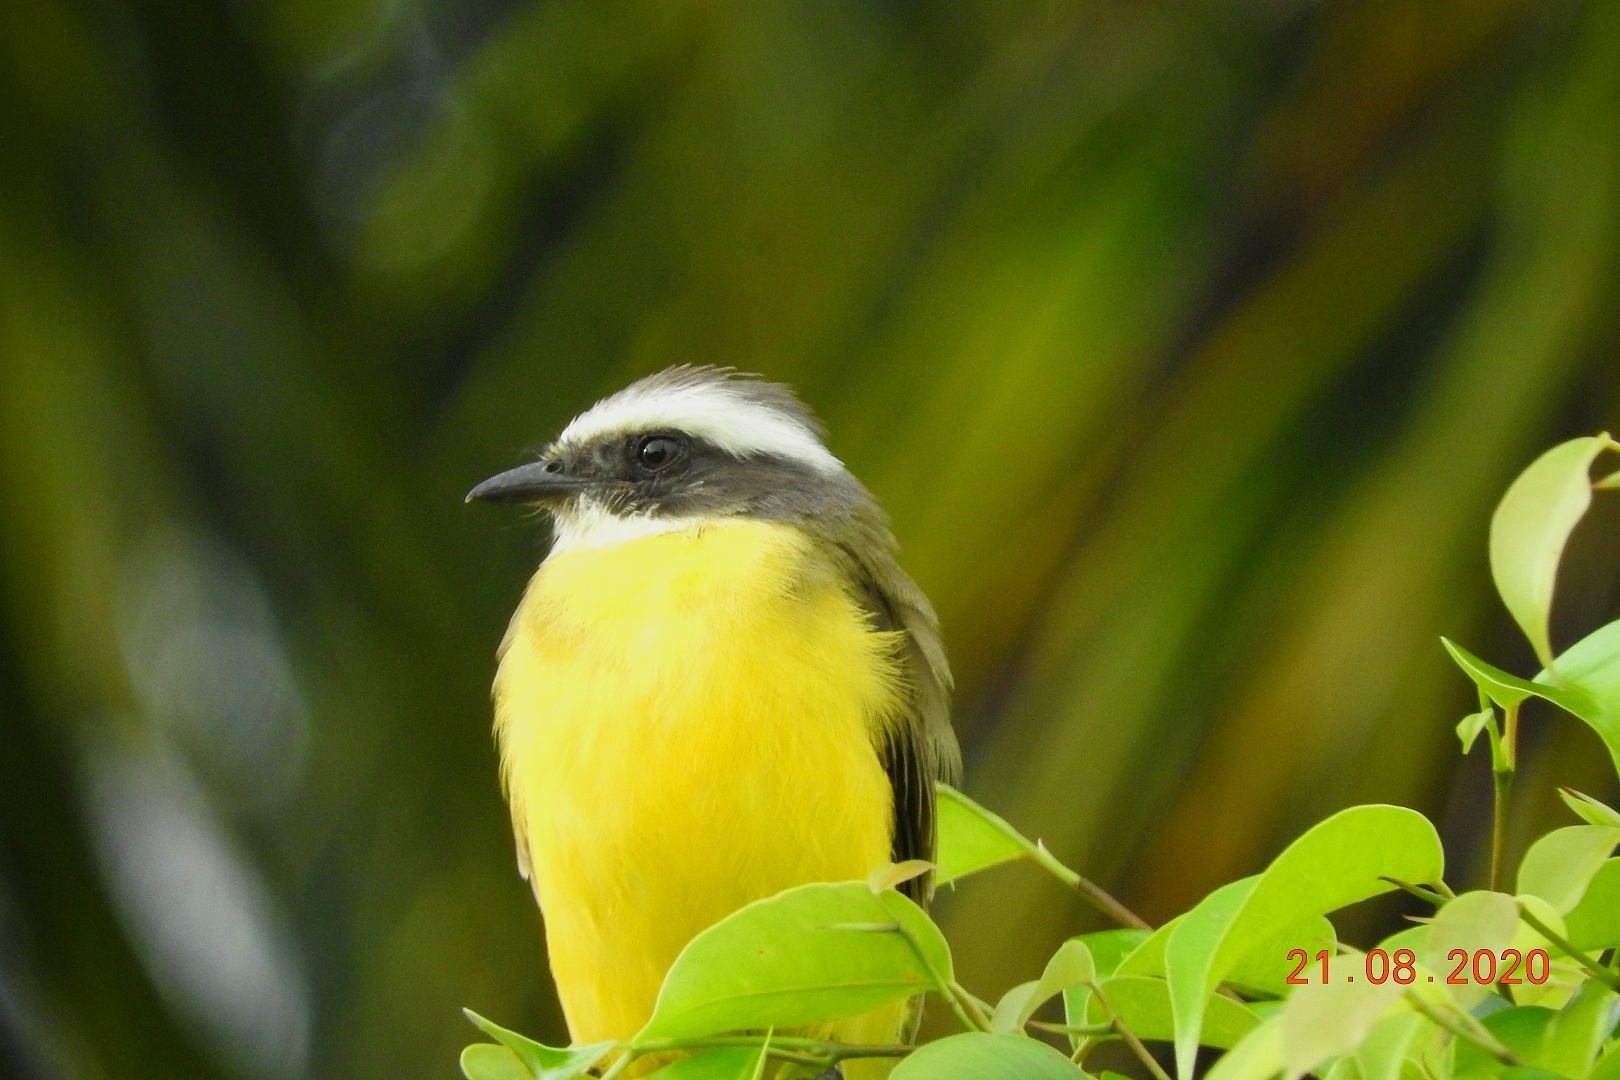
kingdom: Animalia
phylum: Chordata
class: Aves
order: Passeriformes
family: Tyrannidae
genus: Myiozetetes
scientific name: Myiozetetes similis
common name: Social flycatcher
